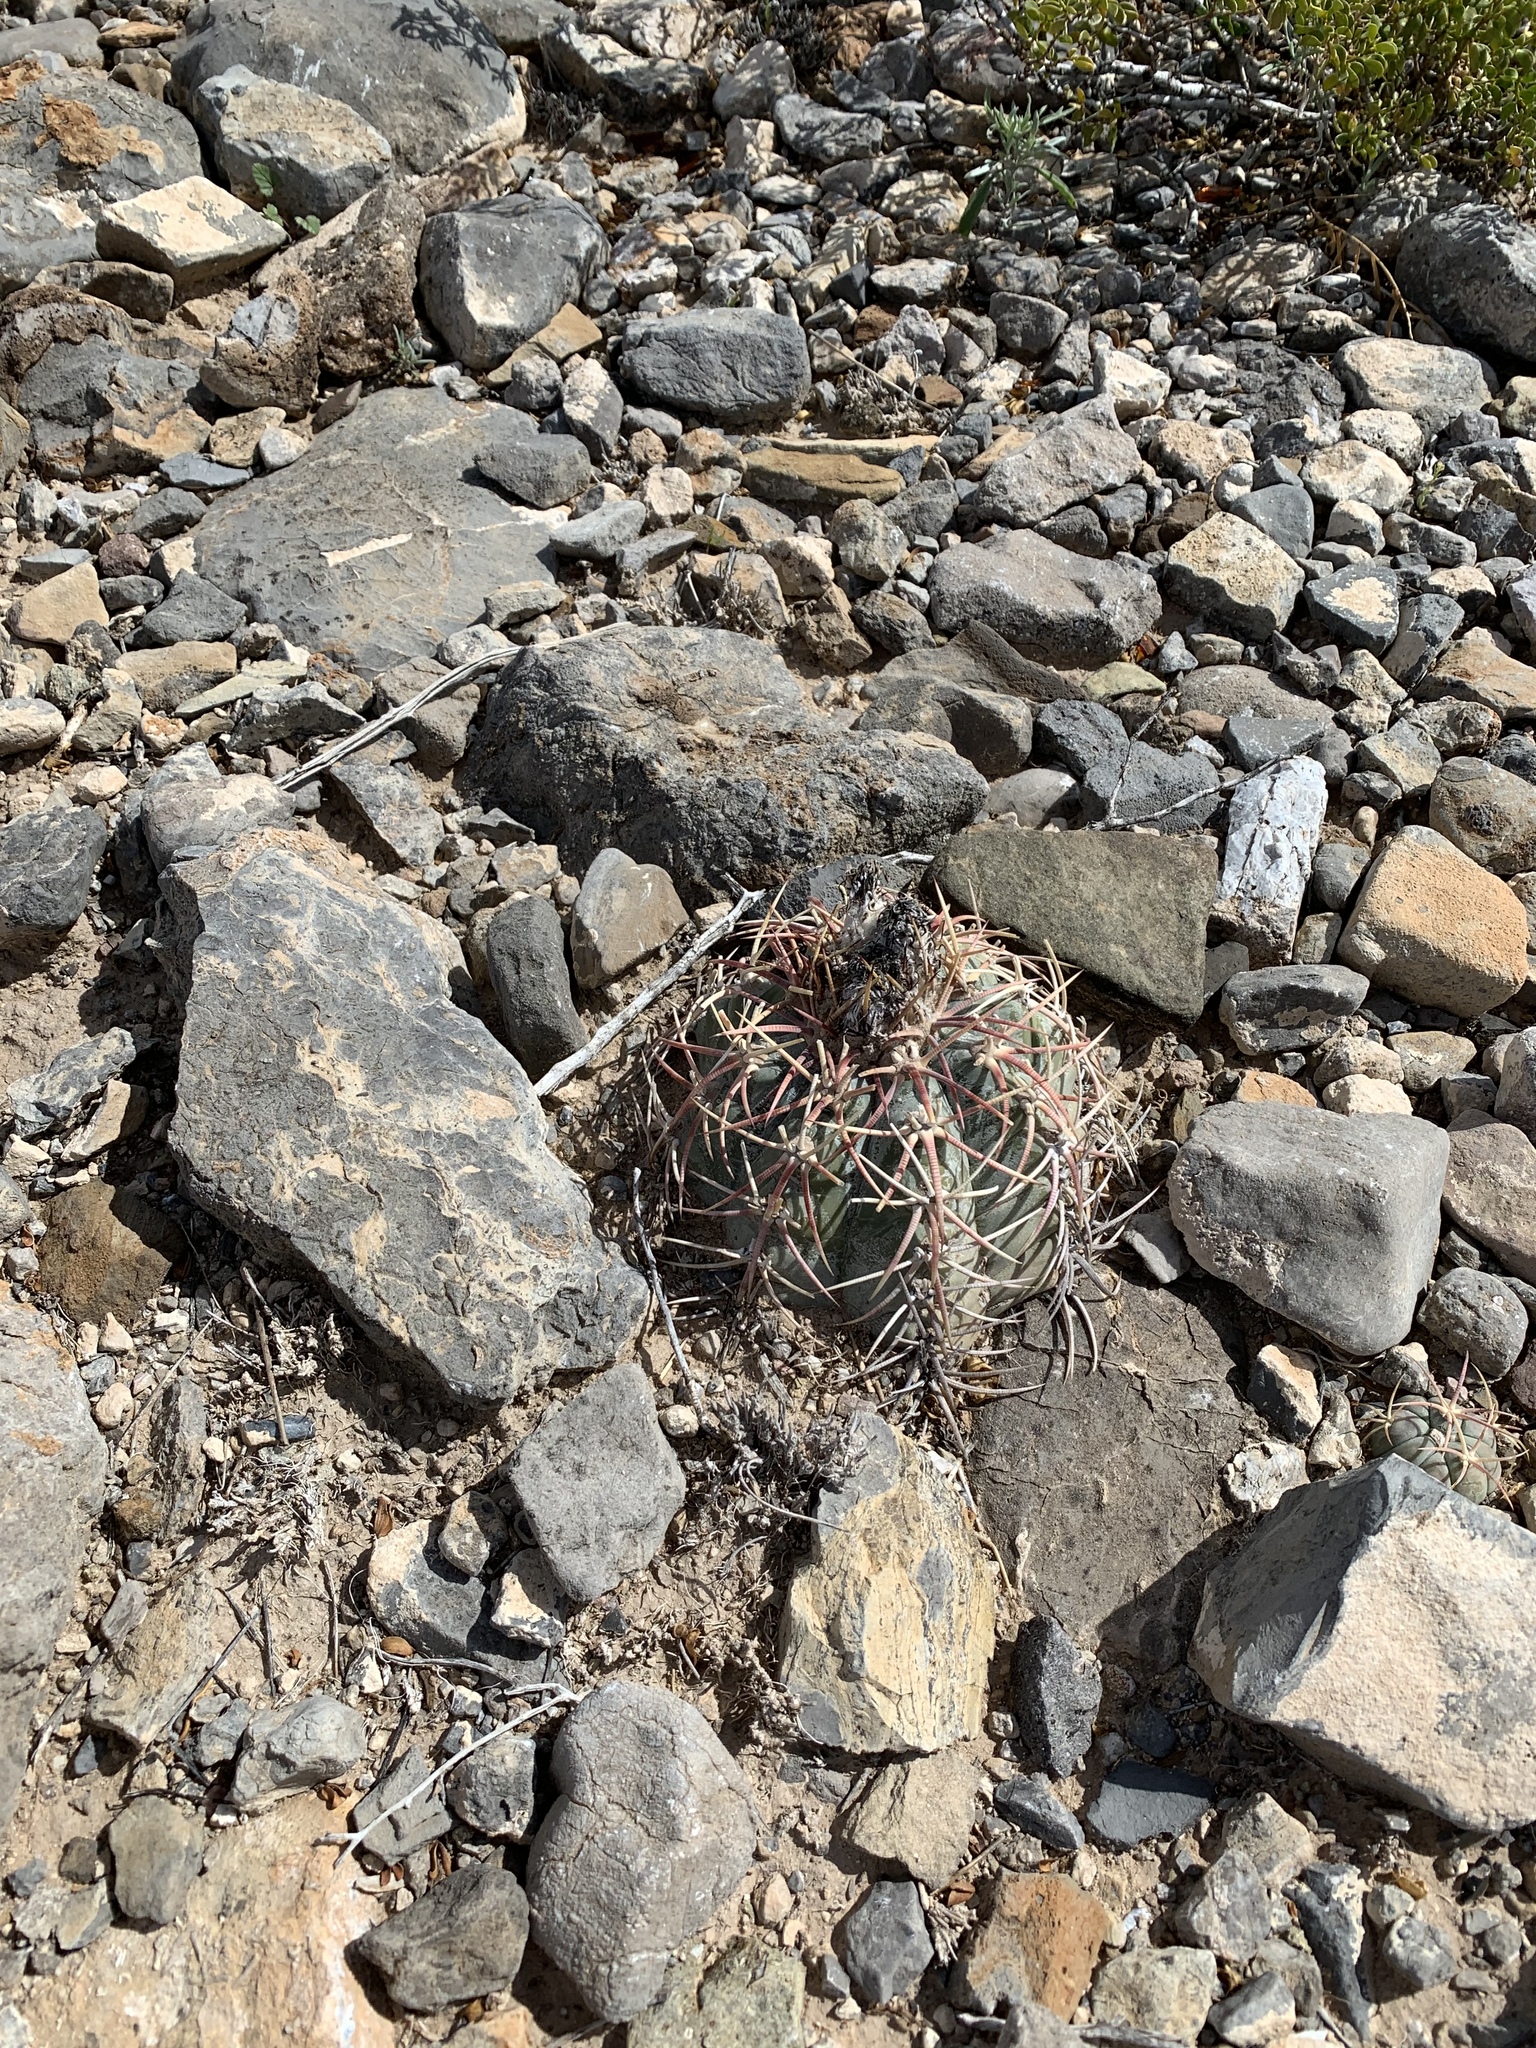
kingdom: Plantae
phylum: Tracheophyta
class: Magnoliopsida
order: Caryophyllales
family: Cactaceae
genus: Echinocactus
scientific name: Echinocactus horizonthalonius
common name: Devilshead
